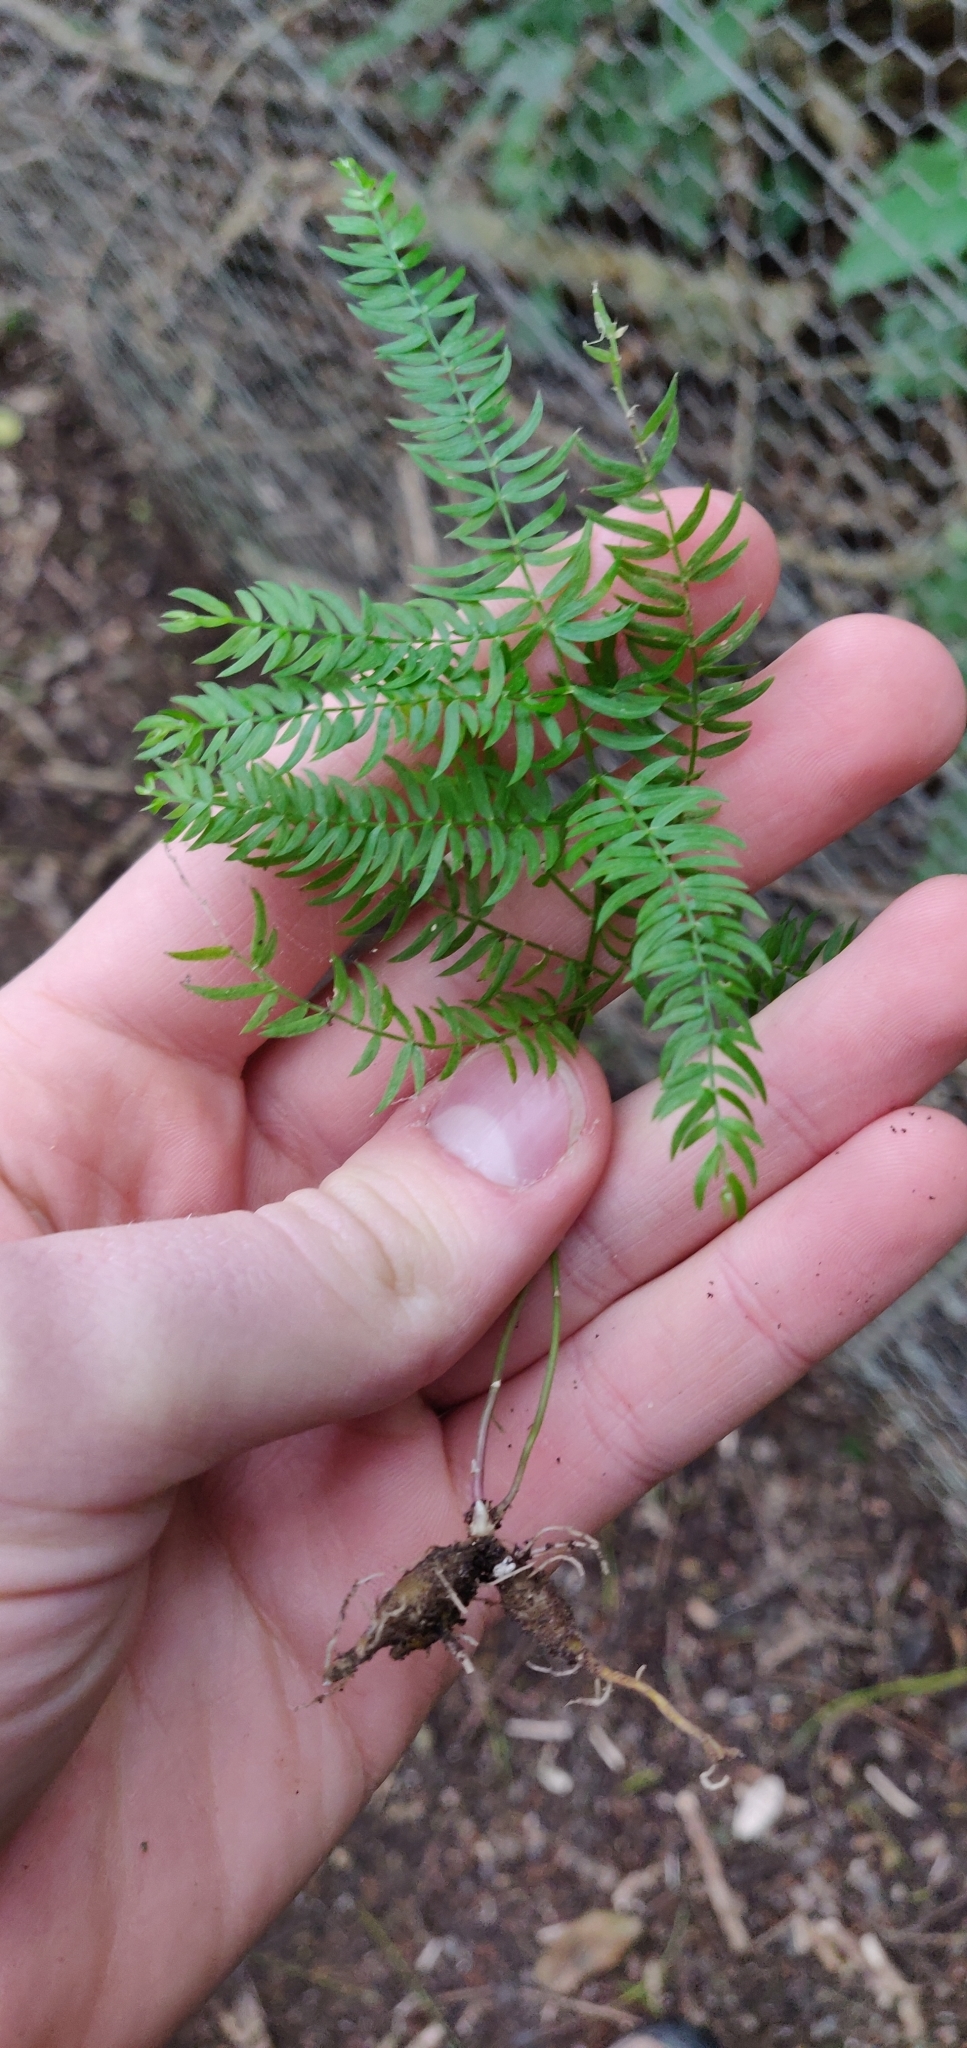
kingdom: Plantae
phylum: Tracheophyta
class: Liliopsida
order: Asparagales
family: Asparagaceae
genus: Asparagus
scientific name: Asparagus scandens
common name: Asparagus-fern
